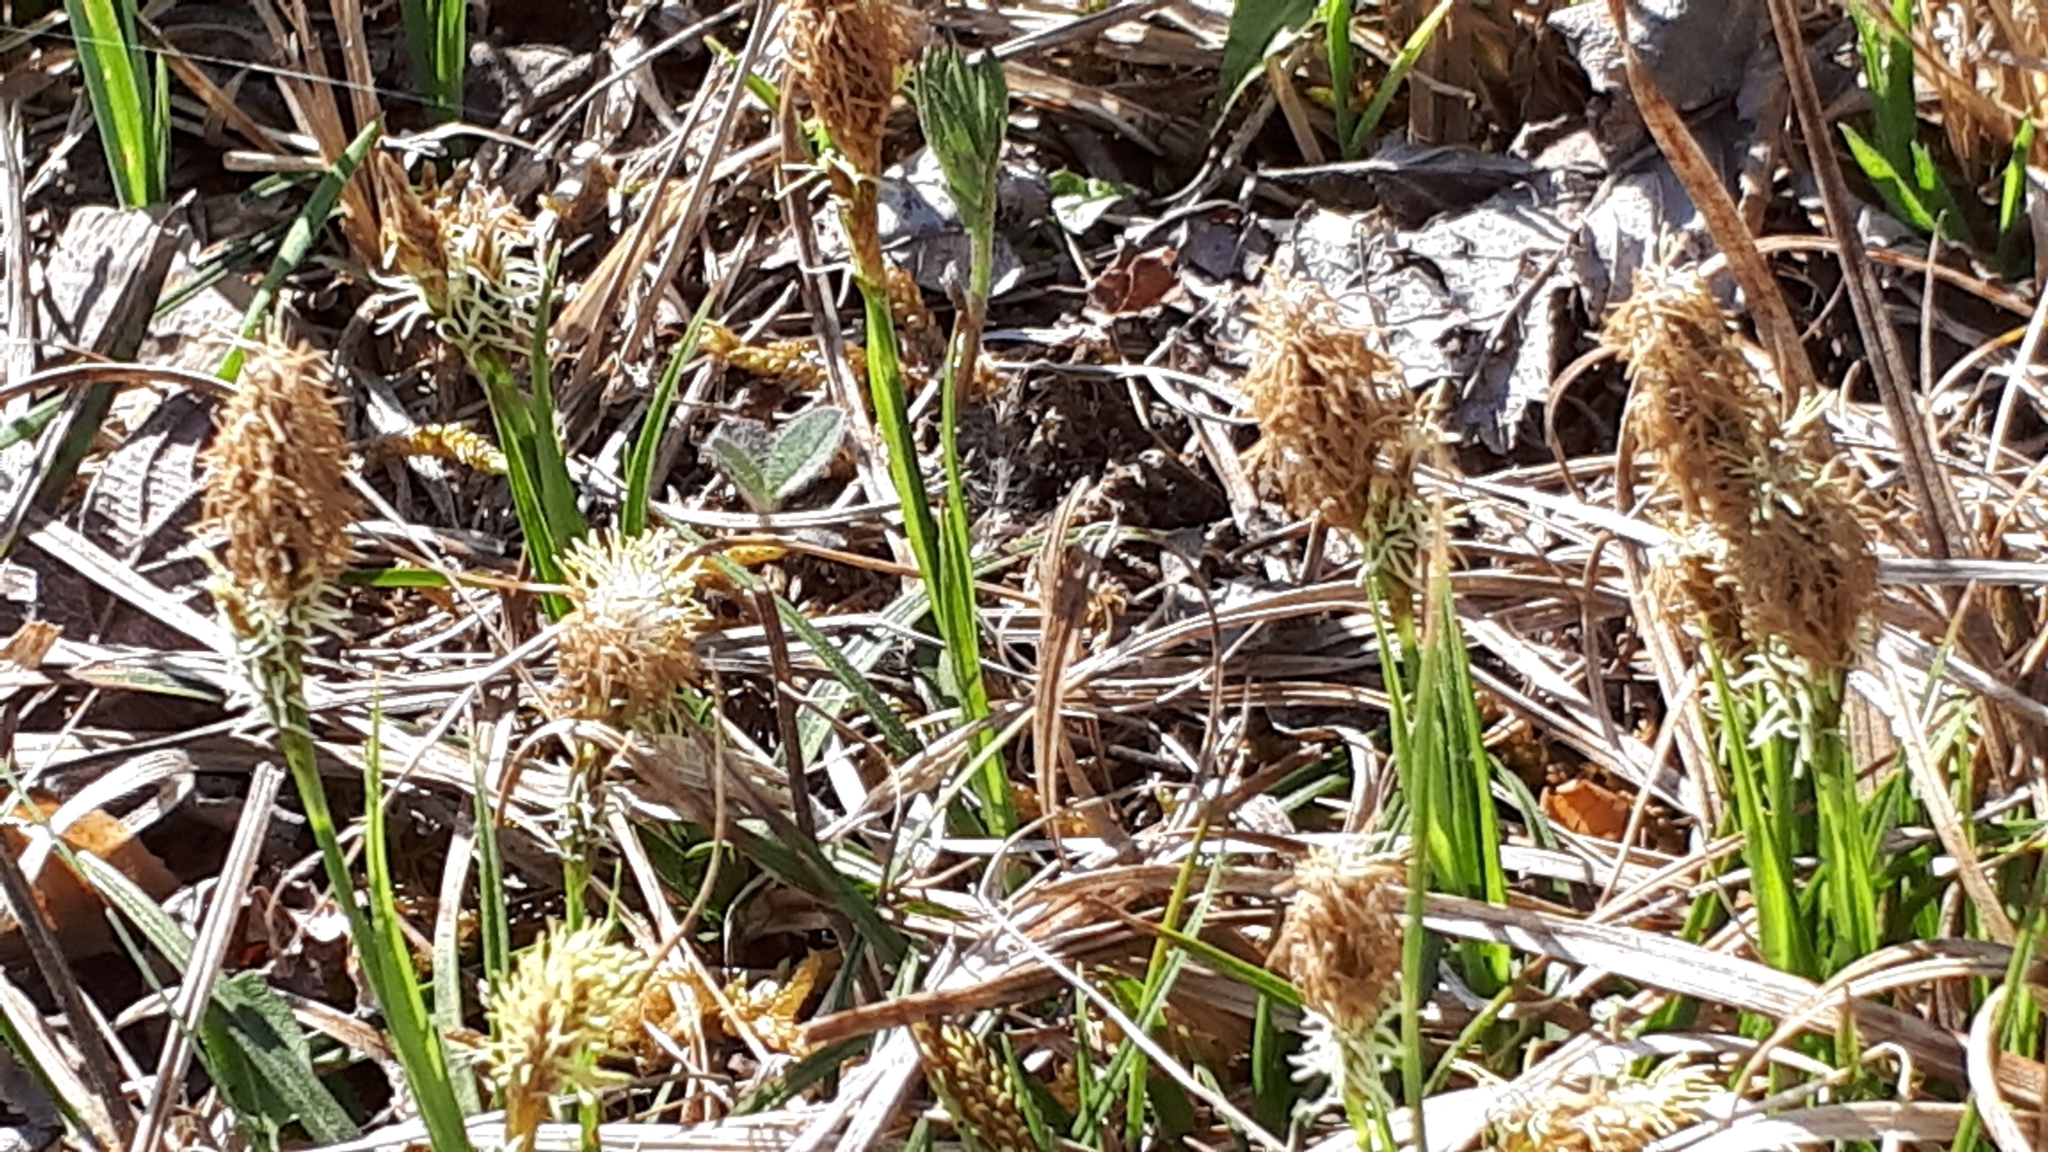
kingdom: Plantae
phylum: Tracheophyta
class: Liliopsida
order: Poales
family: Cyperaceae
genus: Carex
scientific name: Carex caryophyllea
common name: Spring sedge
